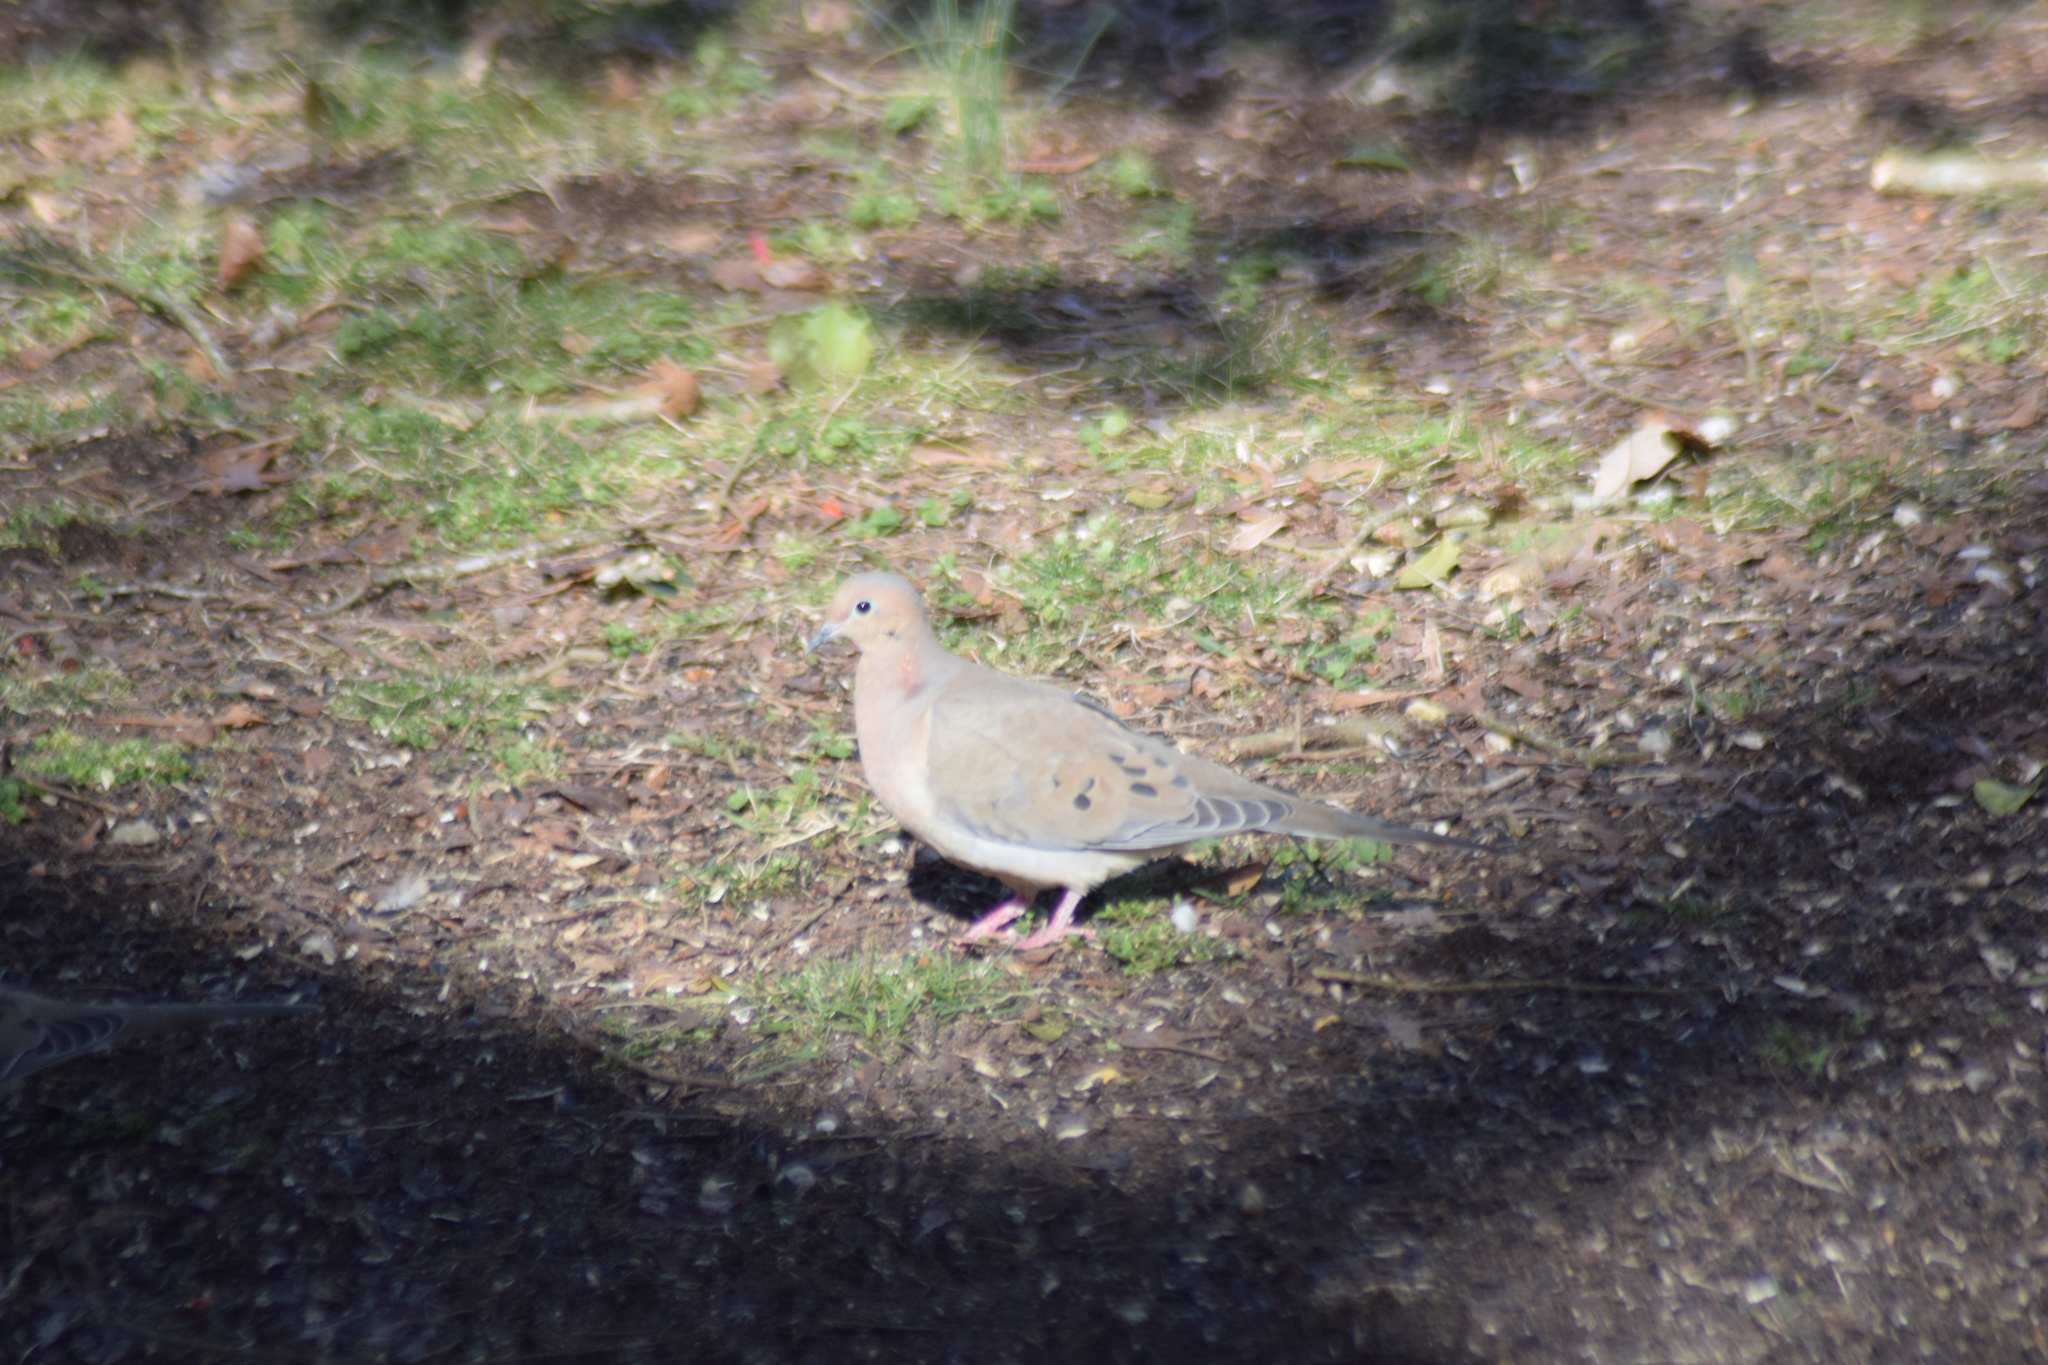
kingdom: Animalia
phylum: Chordata
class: Aves
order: Columbiformes
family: Columbidae
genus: Zenaida
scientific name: Zenaida macroura
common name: Mourning dove
